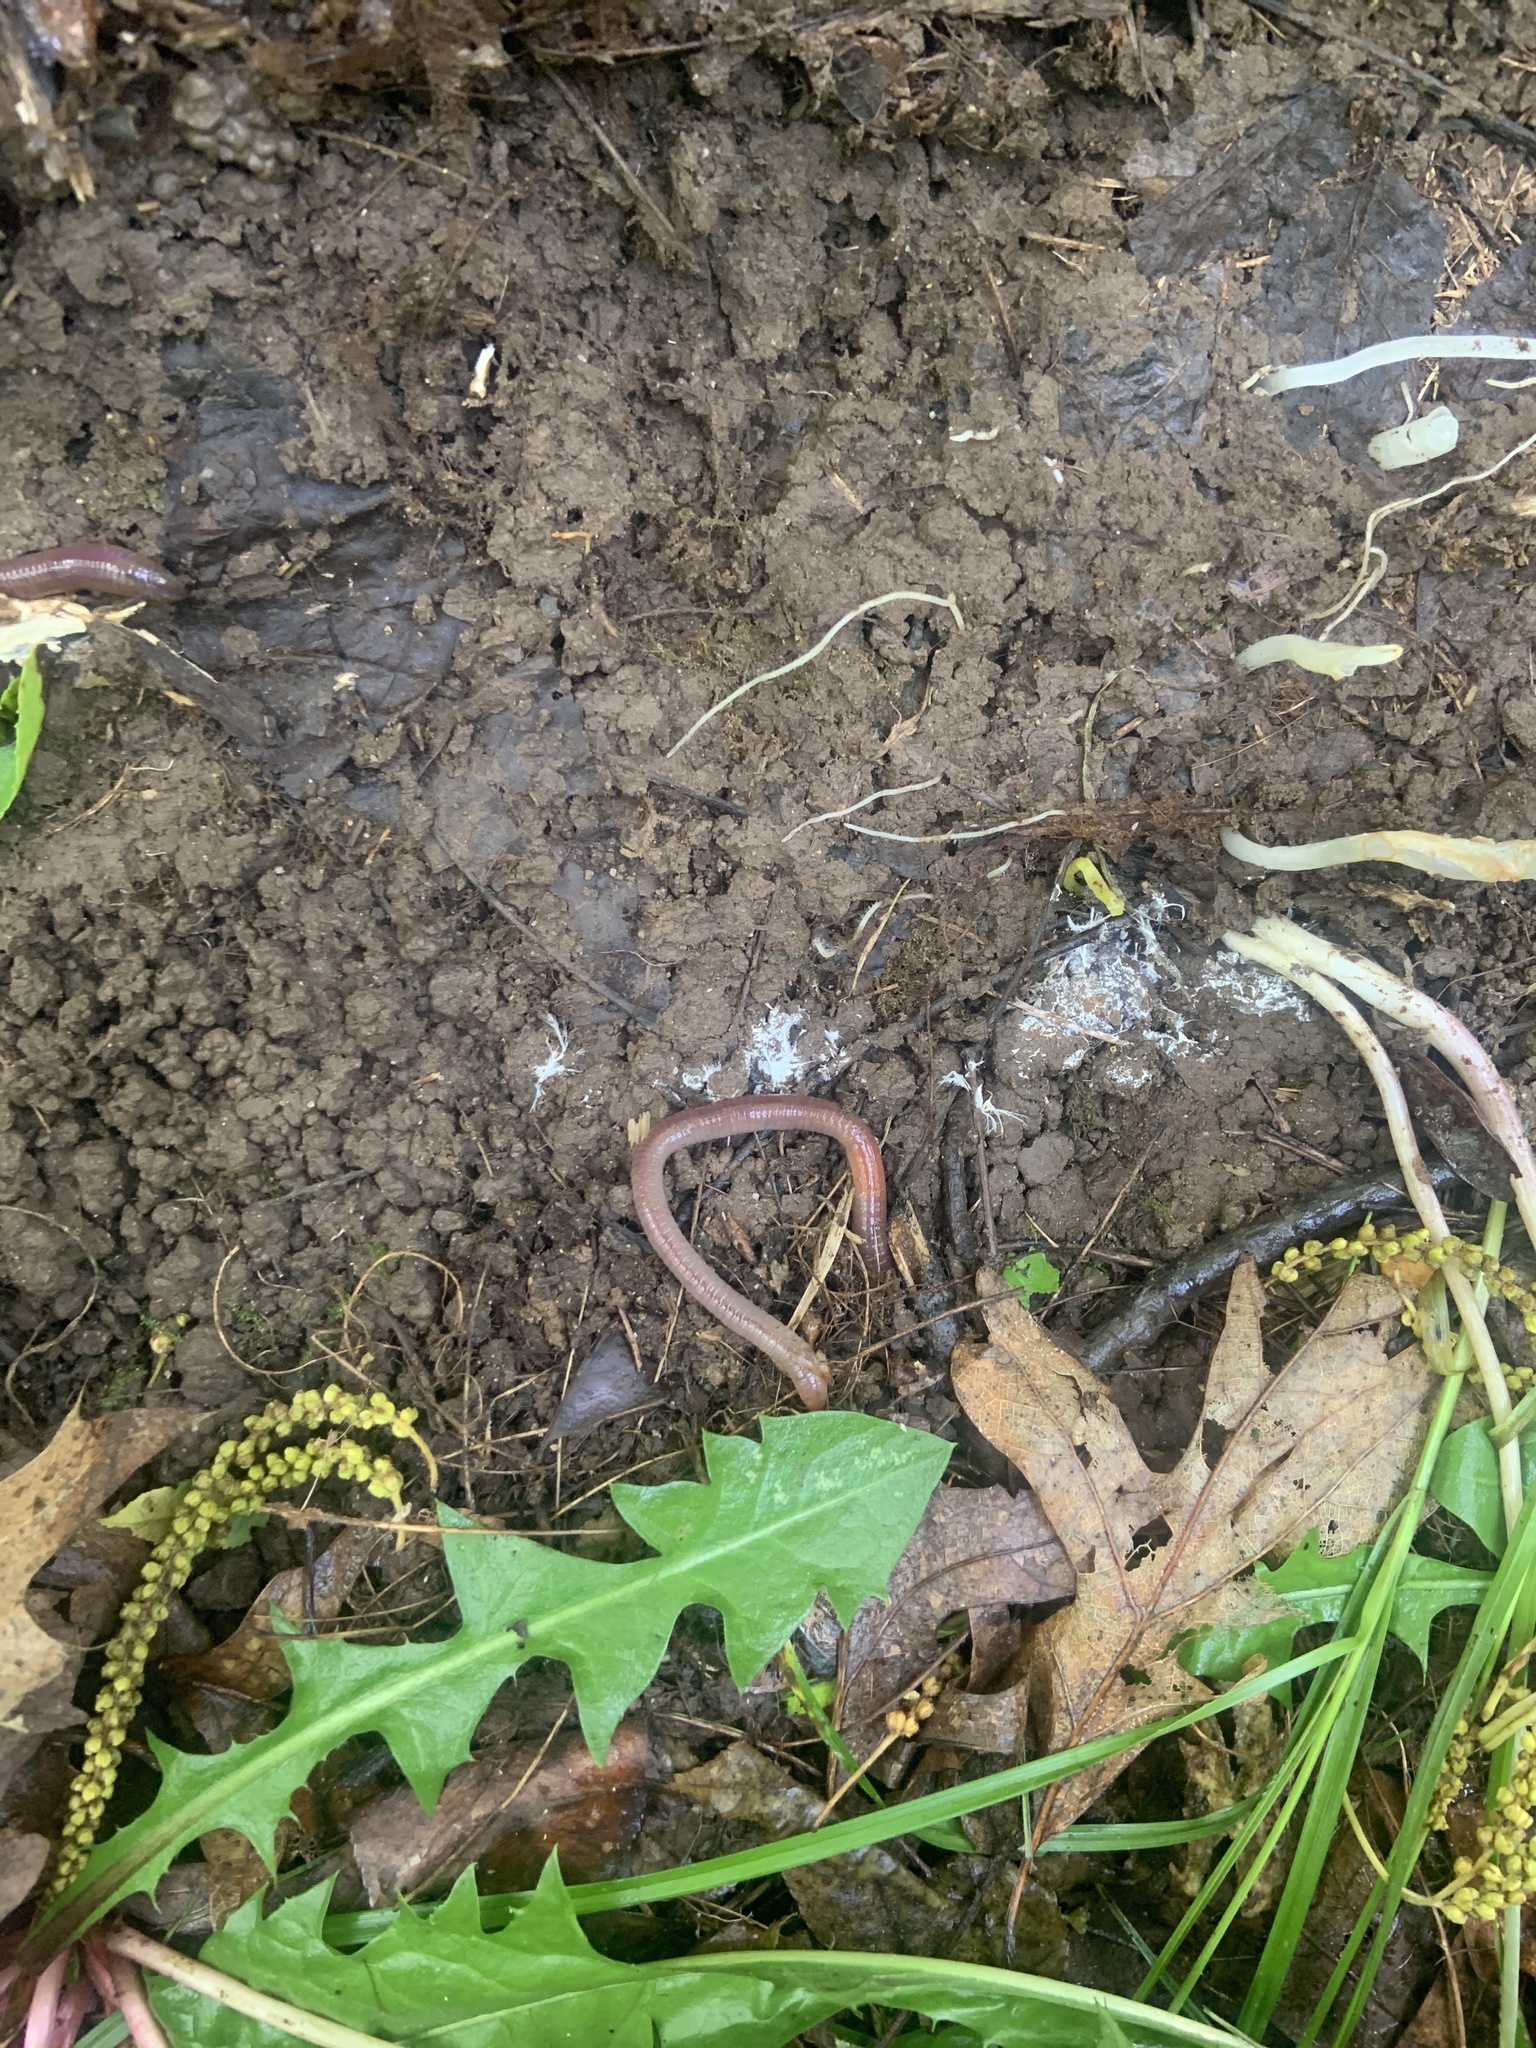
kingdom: Animalia
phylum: Annelida
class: Clitellata
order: Crassiclitellata
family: Lumbricidae
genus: Lumbricus
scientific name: Lumbricus terrestris
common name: Common earthworm
